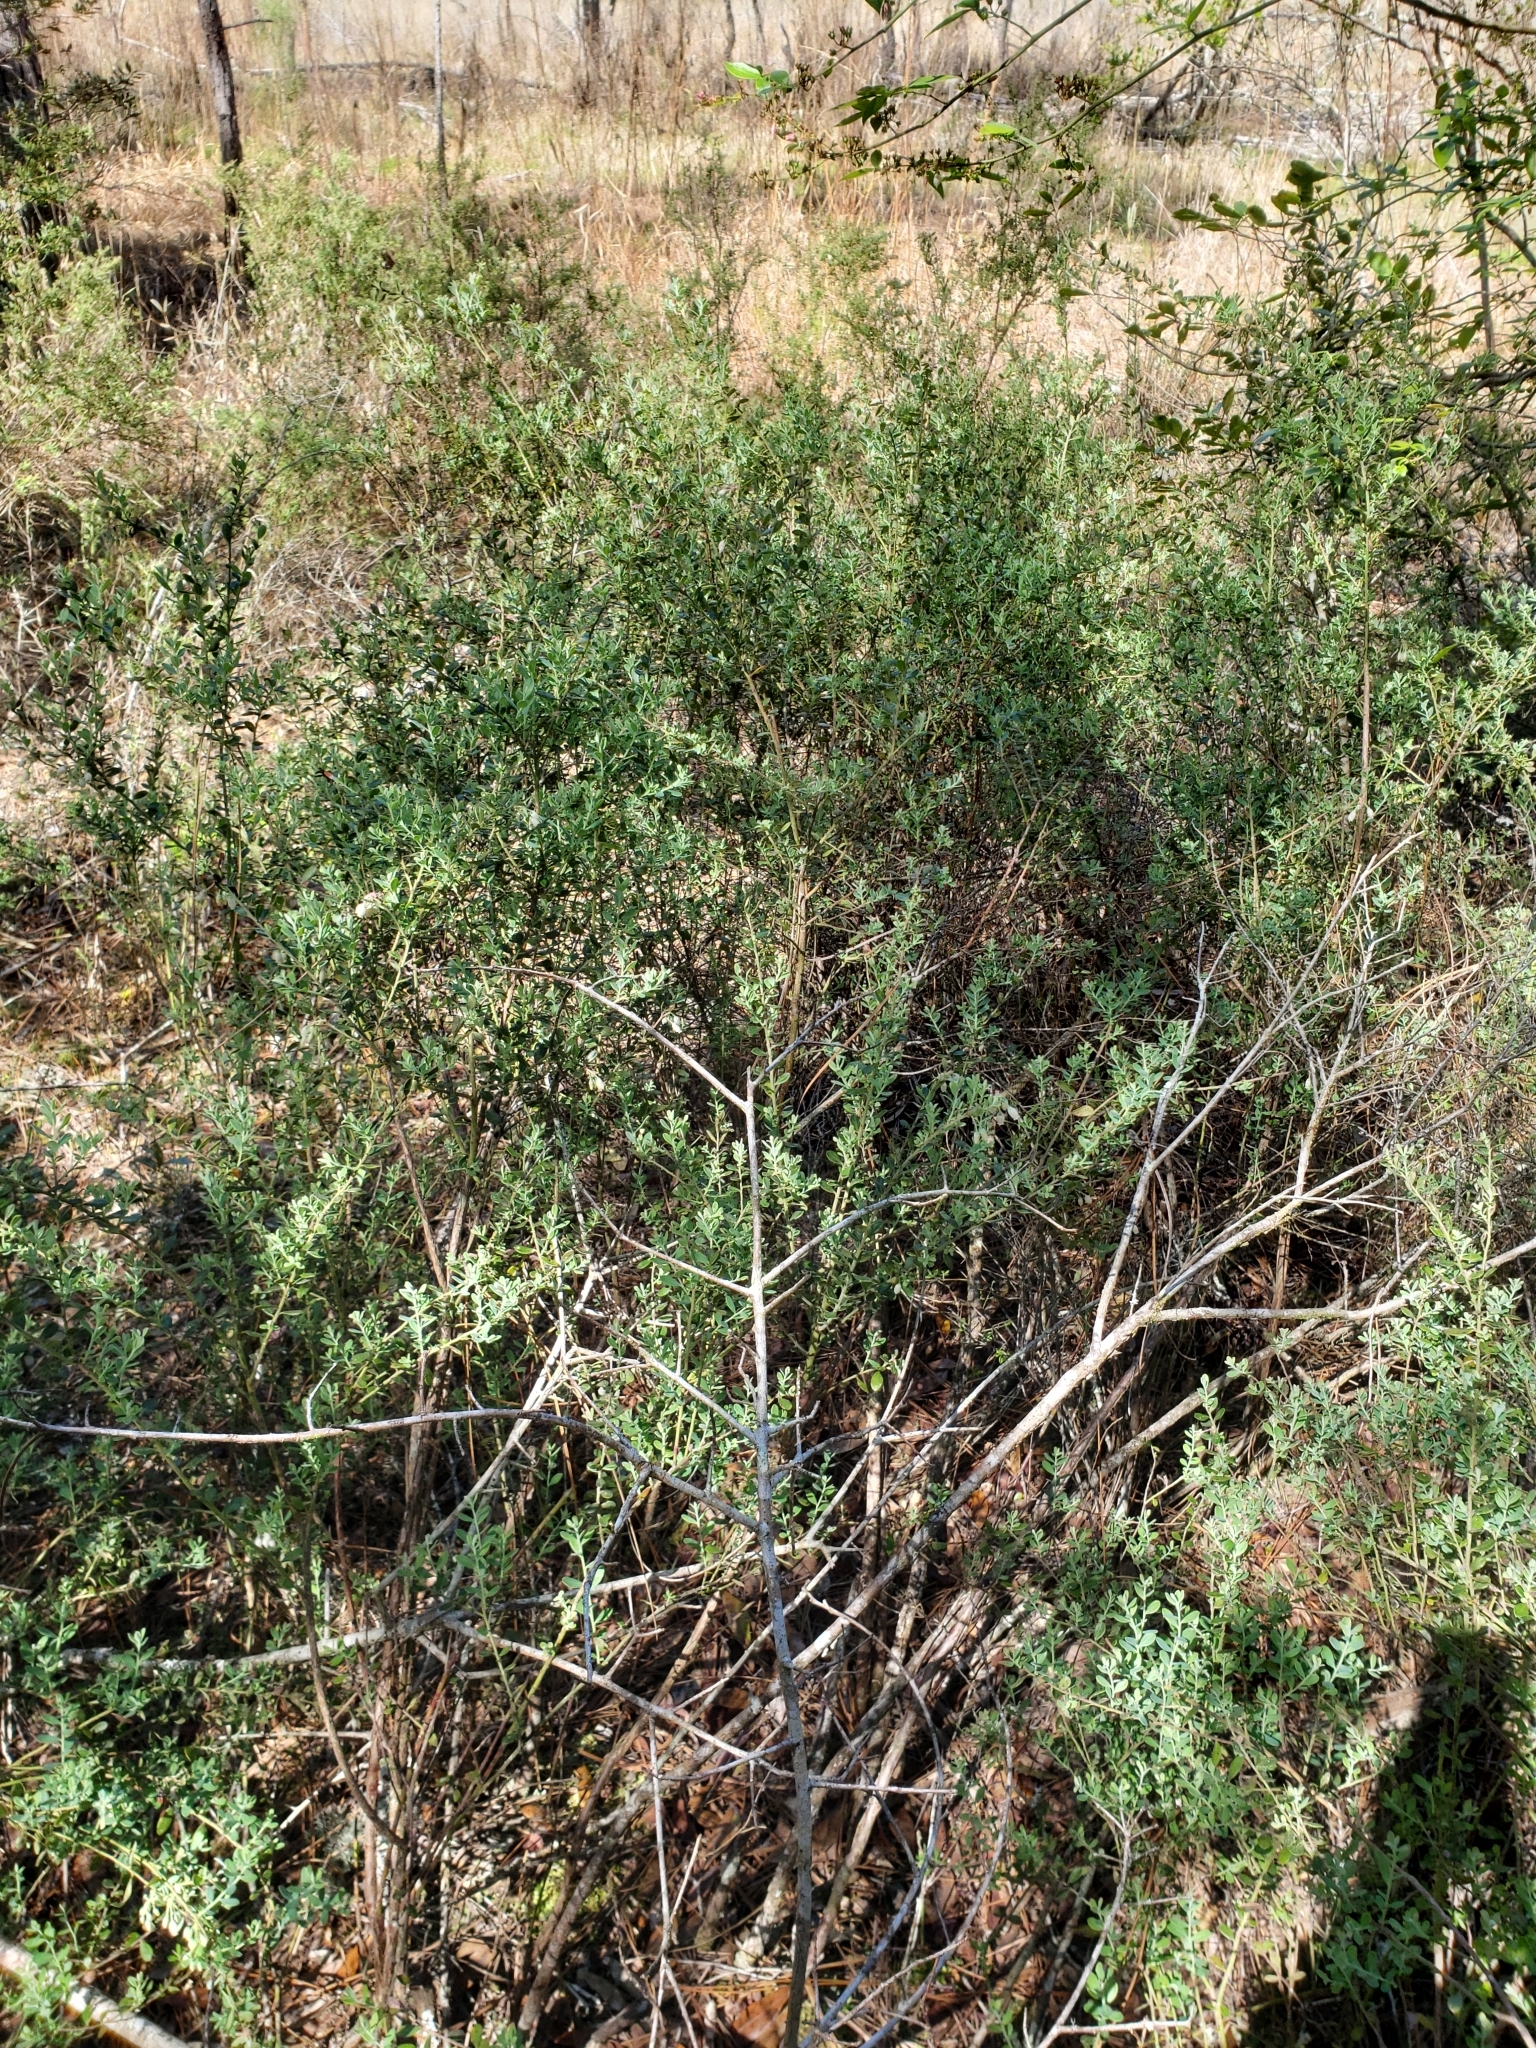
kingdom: Plantae
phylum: Tracheophyta
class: Magnoliopsida
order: Ericales
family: Ericaceae
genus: Vaccinium
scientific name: Vaccinium darrowii
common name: Darrow's blueberry
